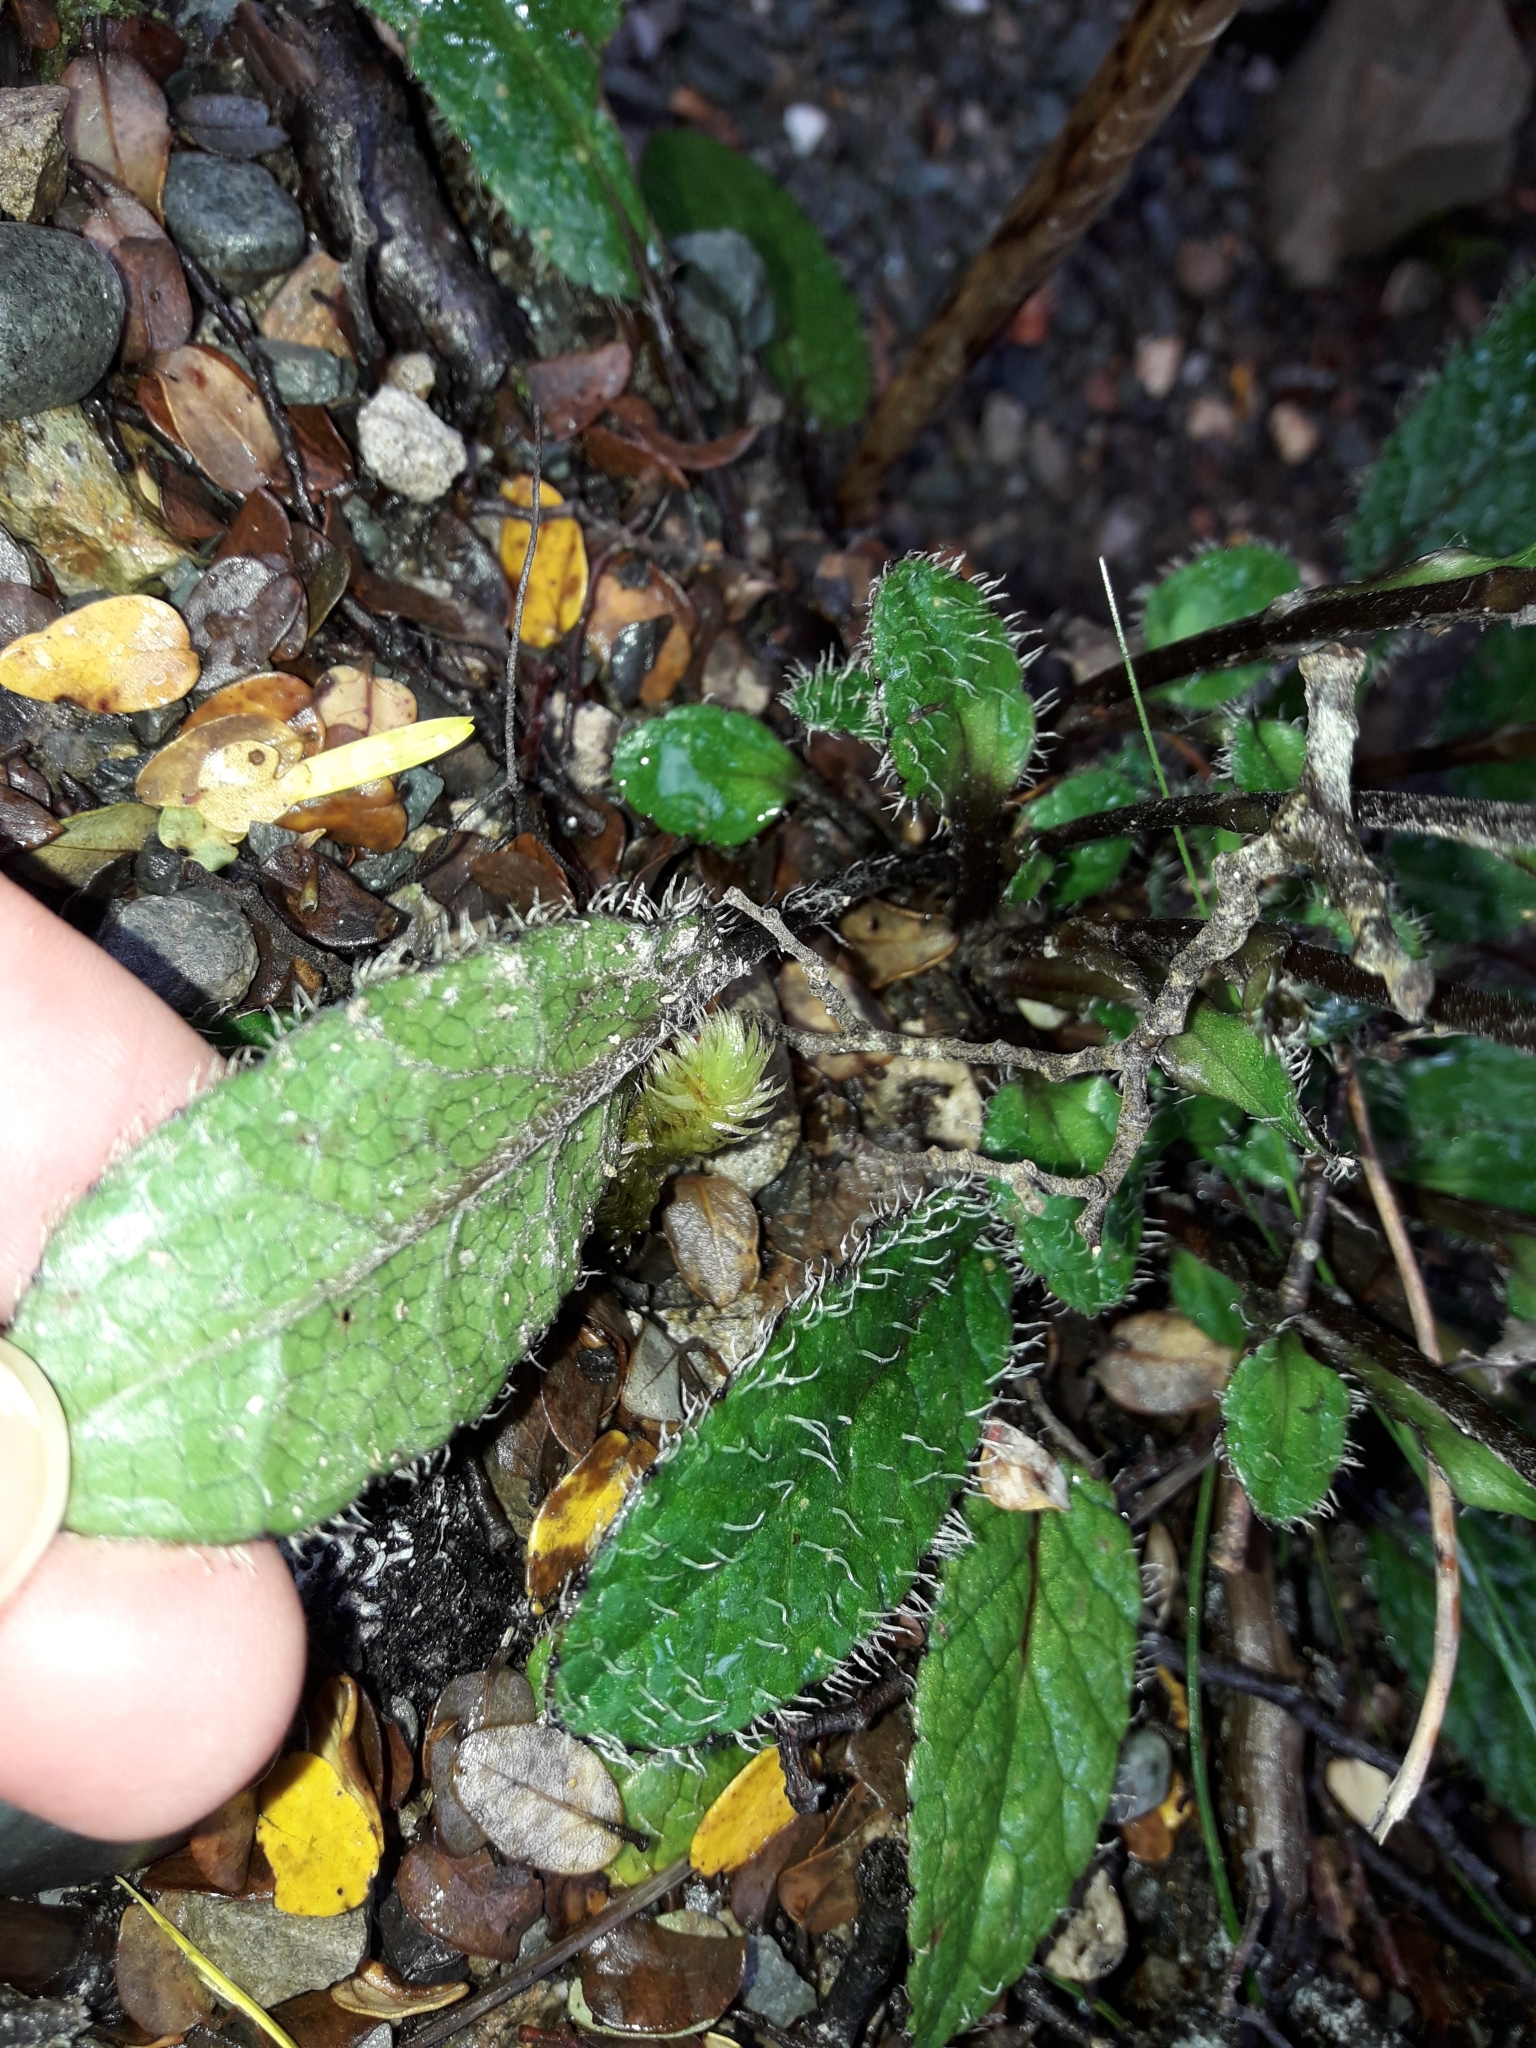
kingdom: Plantae
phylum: Tracheophyta
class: Magnoliopsida
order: Asterales
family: Asteraceae
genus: Brachyglottis
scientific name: Brachyglottis bellidioides
